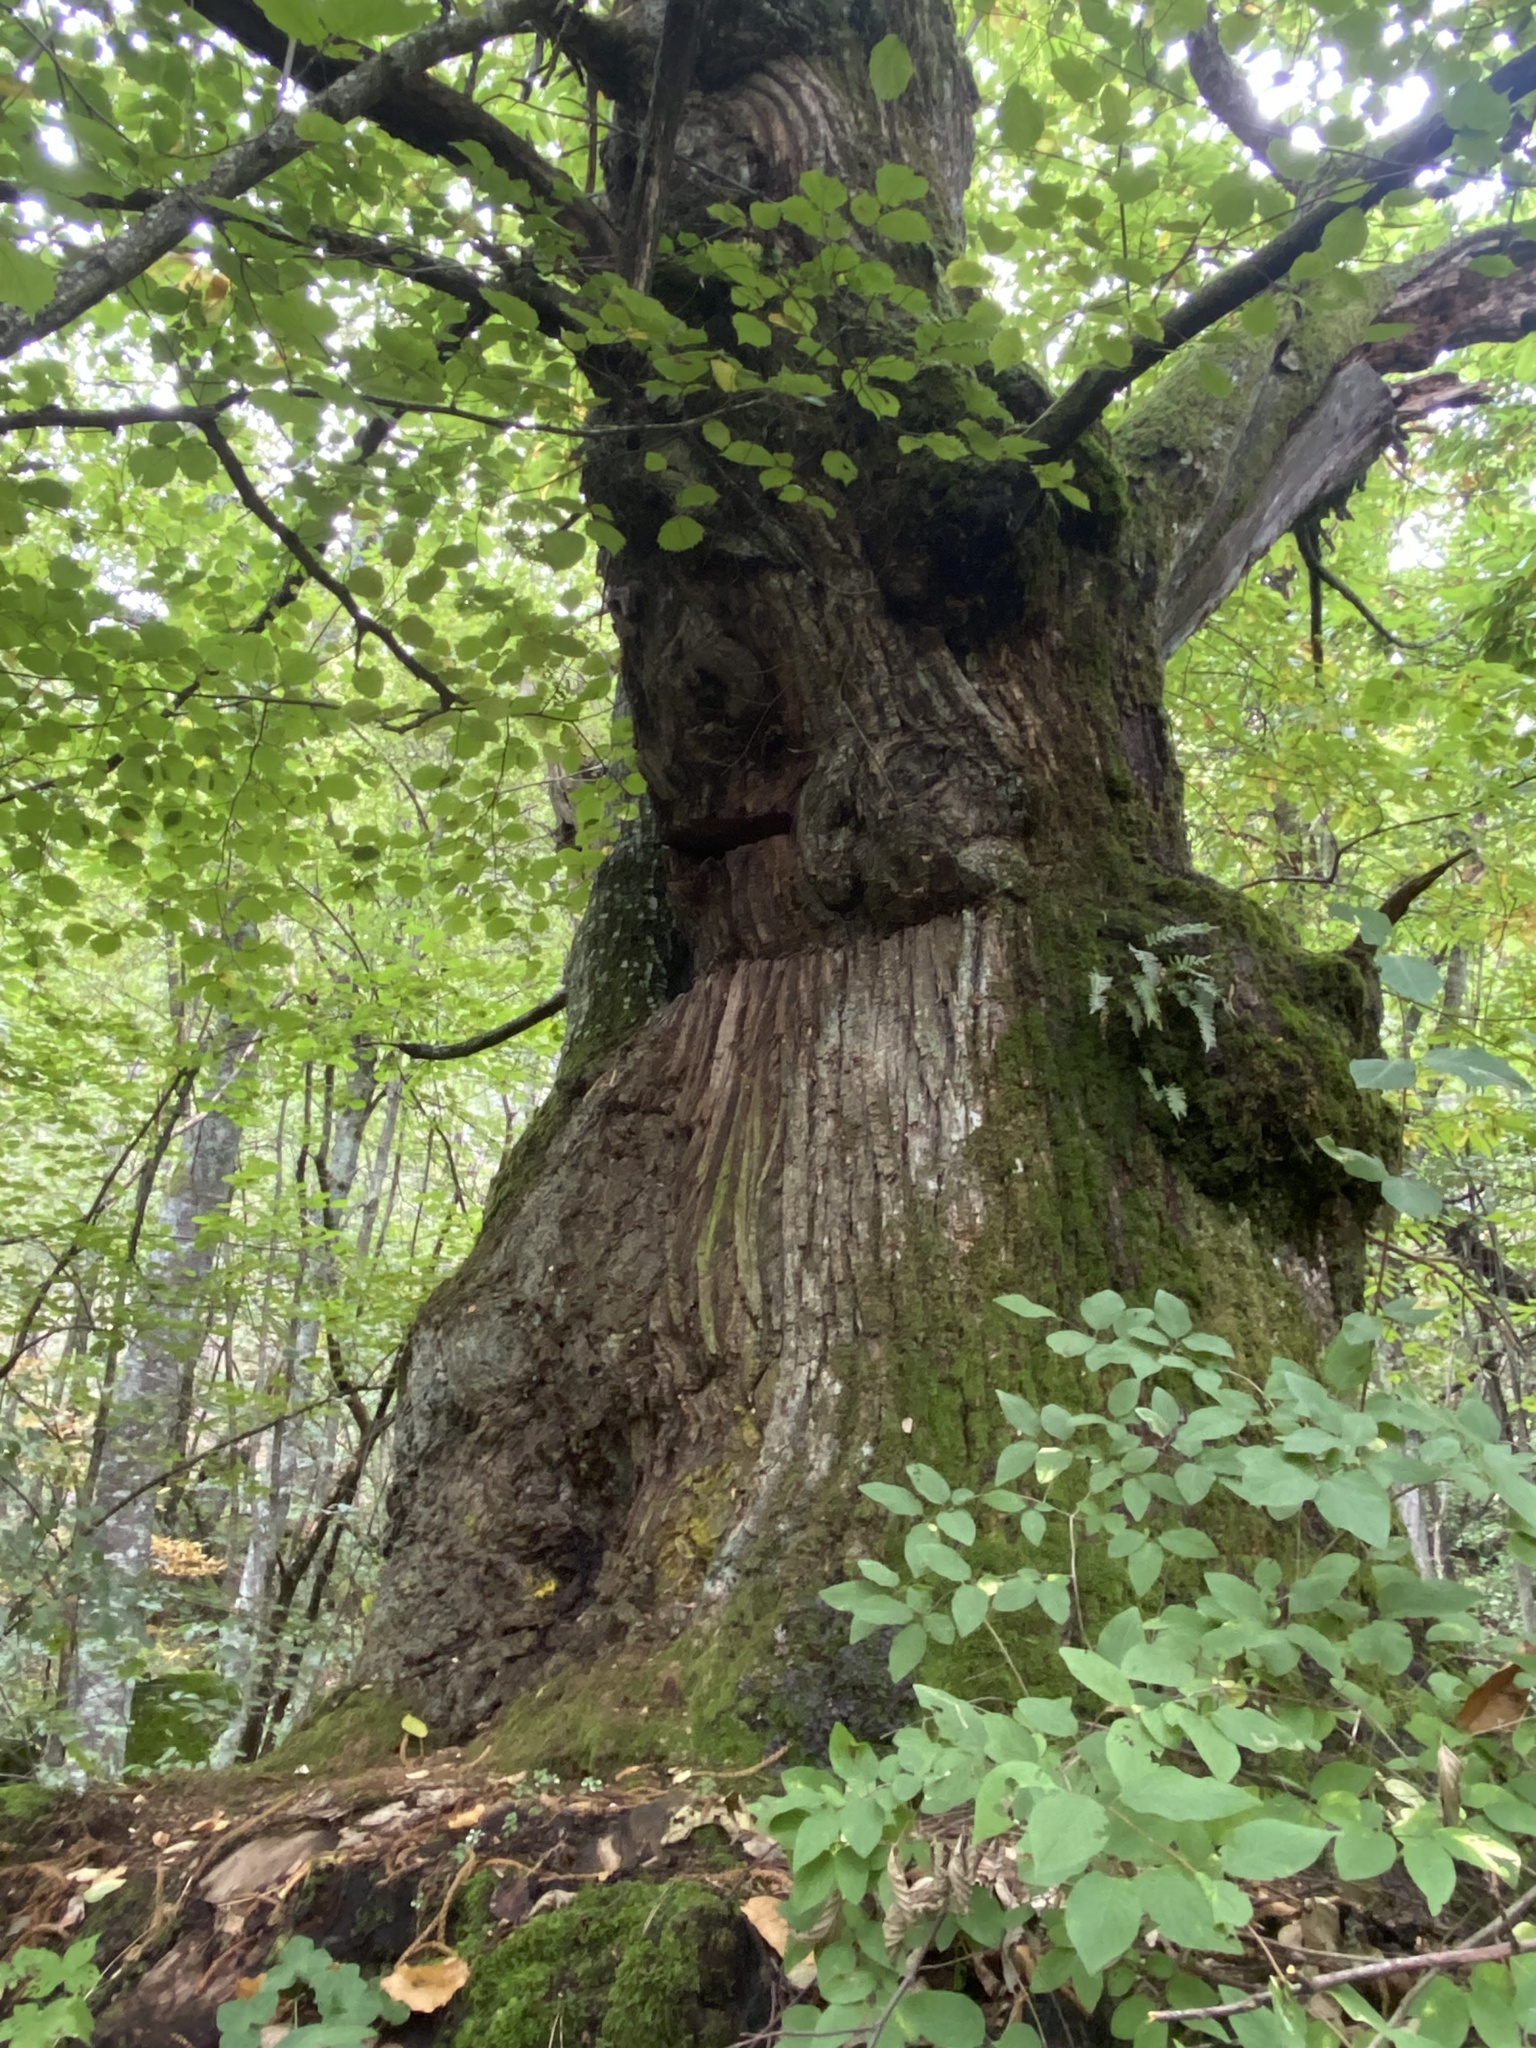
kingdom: Plantae
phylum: Tracheophyta
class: Magnoliopsida
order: Fagales
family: Fagaceae
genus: Fagus
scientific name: Fagus sylvatica
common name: Beech
